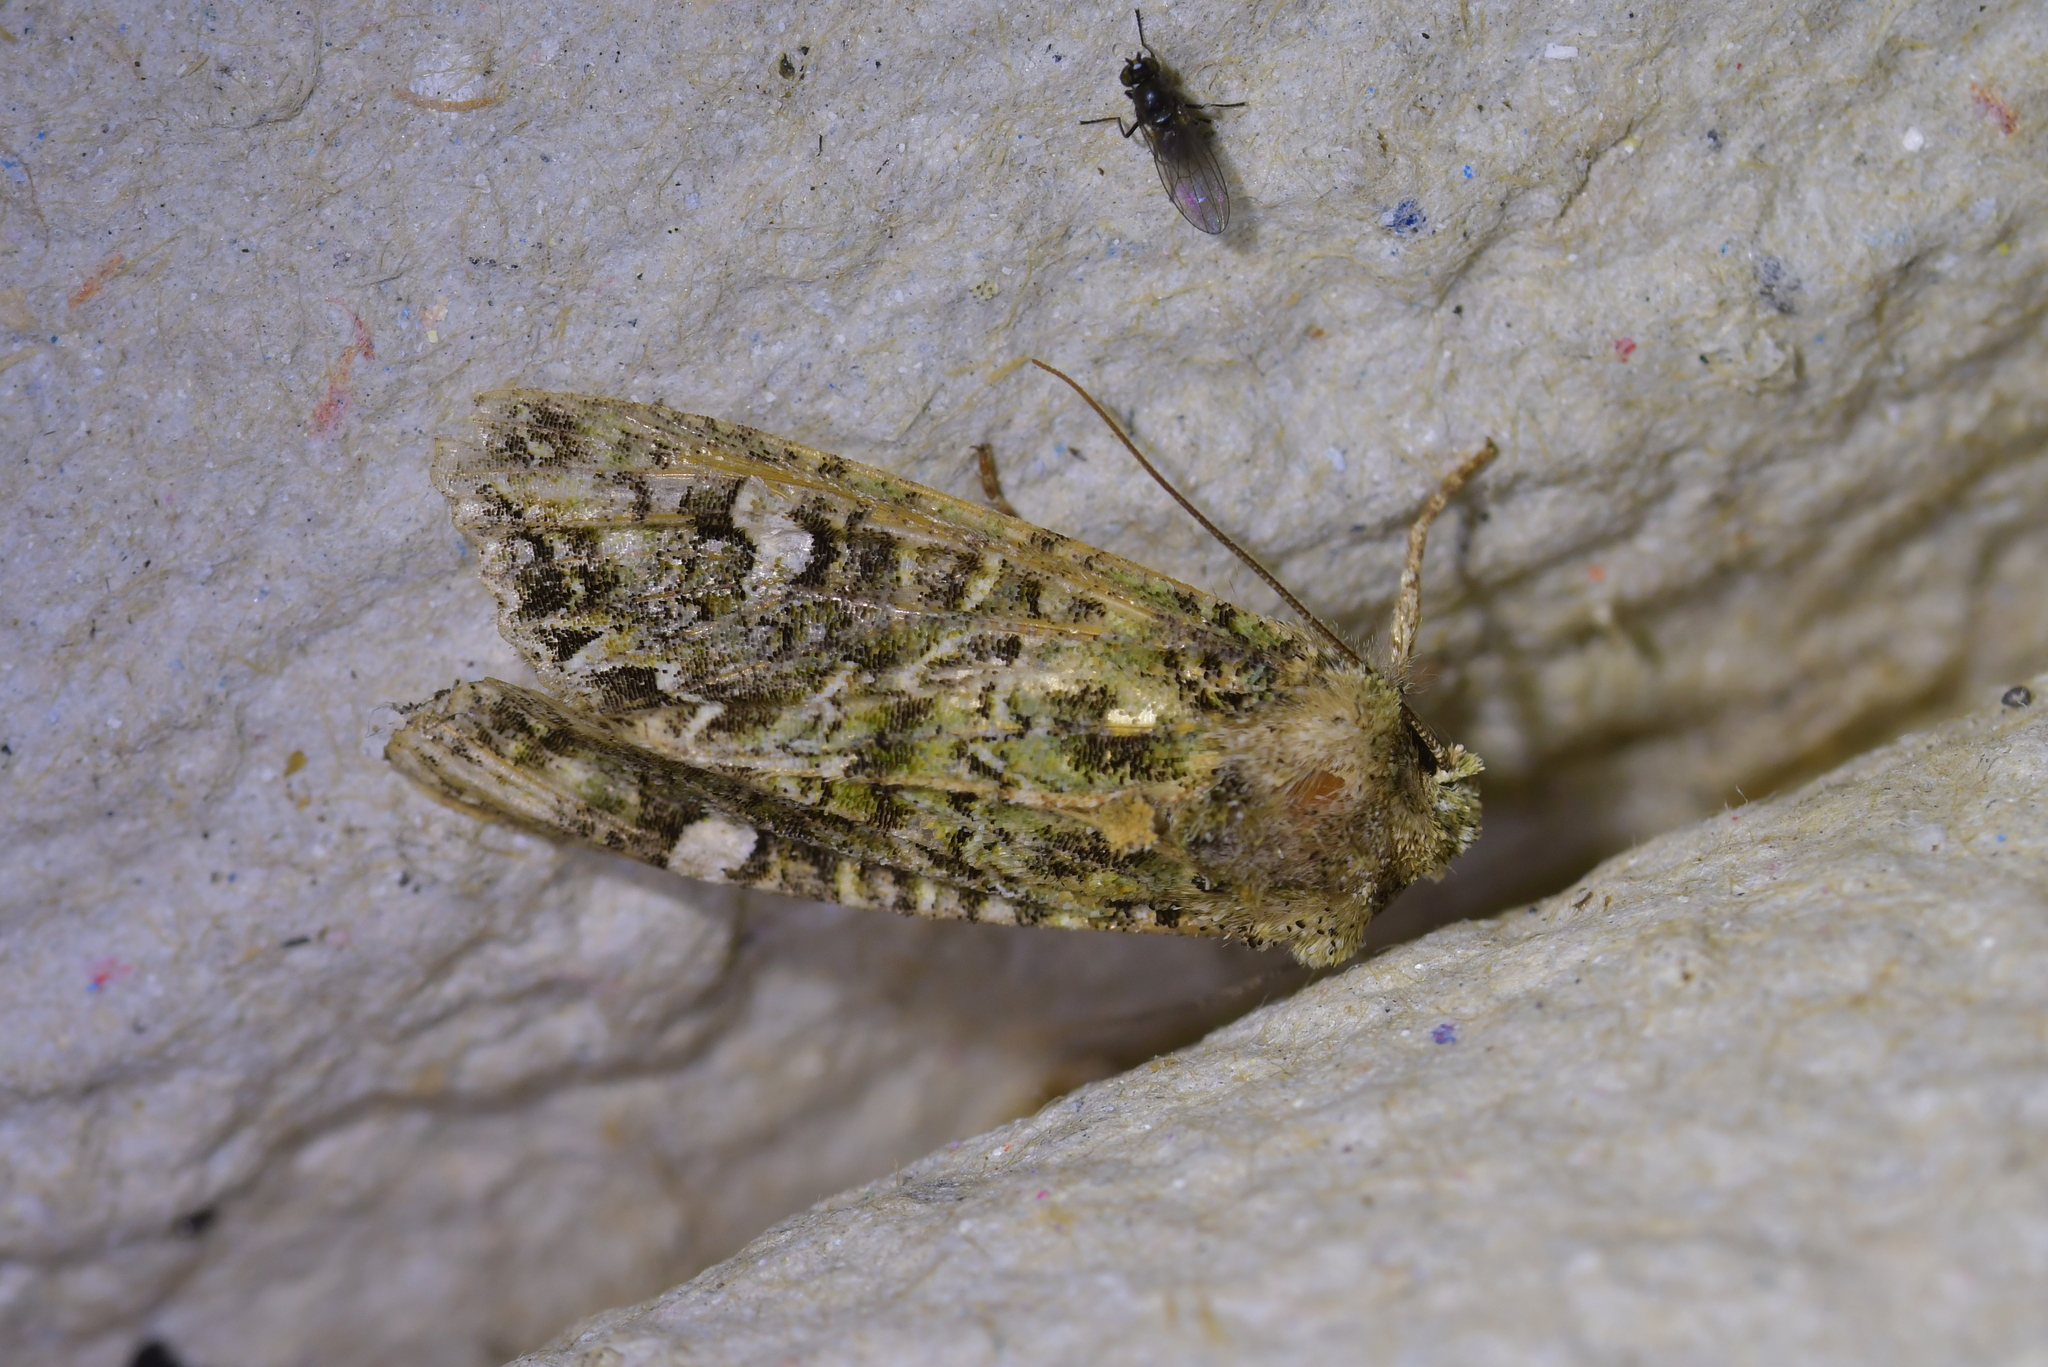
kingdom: Animalia
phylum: Arthropoda
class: Insecta
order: Lepidoptera
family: Noctuidae
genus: Ichneutica
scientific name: Ichneutica
